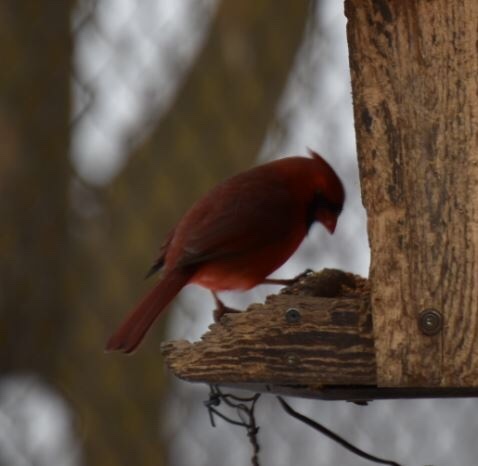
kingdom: Animalia
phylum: Chordata
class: Aves
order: Passeriformes
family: Cardinalidae
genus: Cardinalis
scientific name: Cardinalis cardinalis
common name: Northern cardinal
